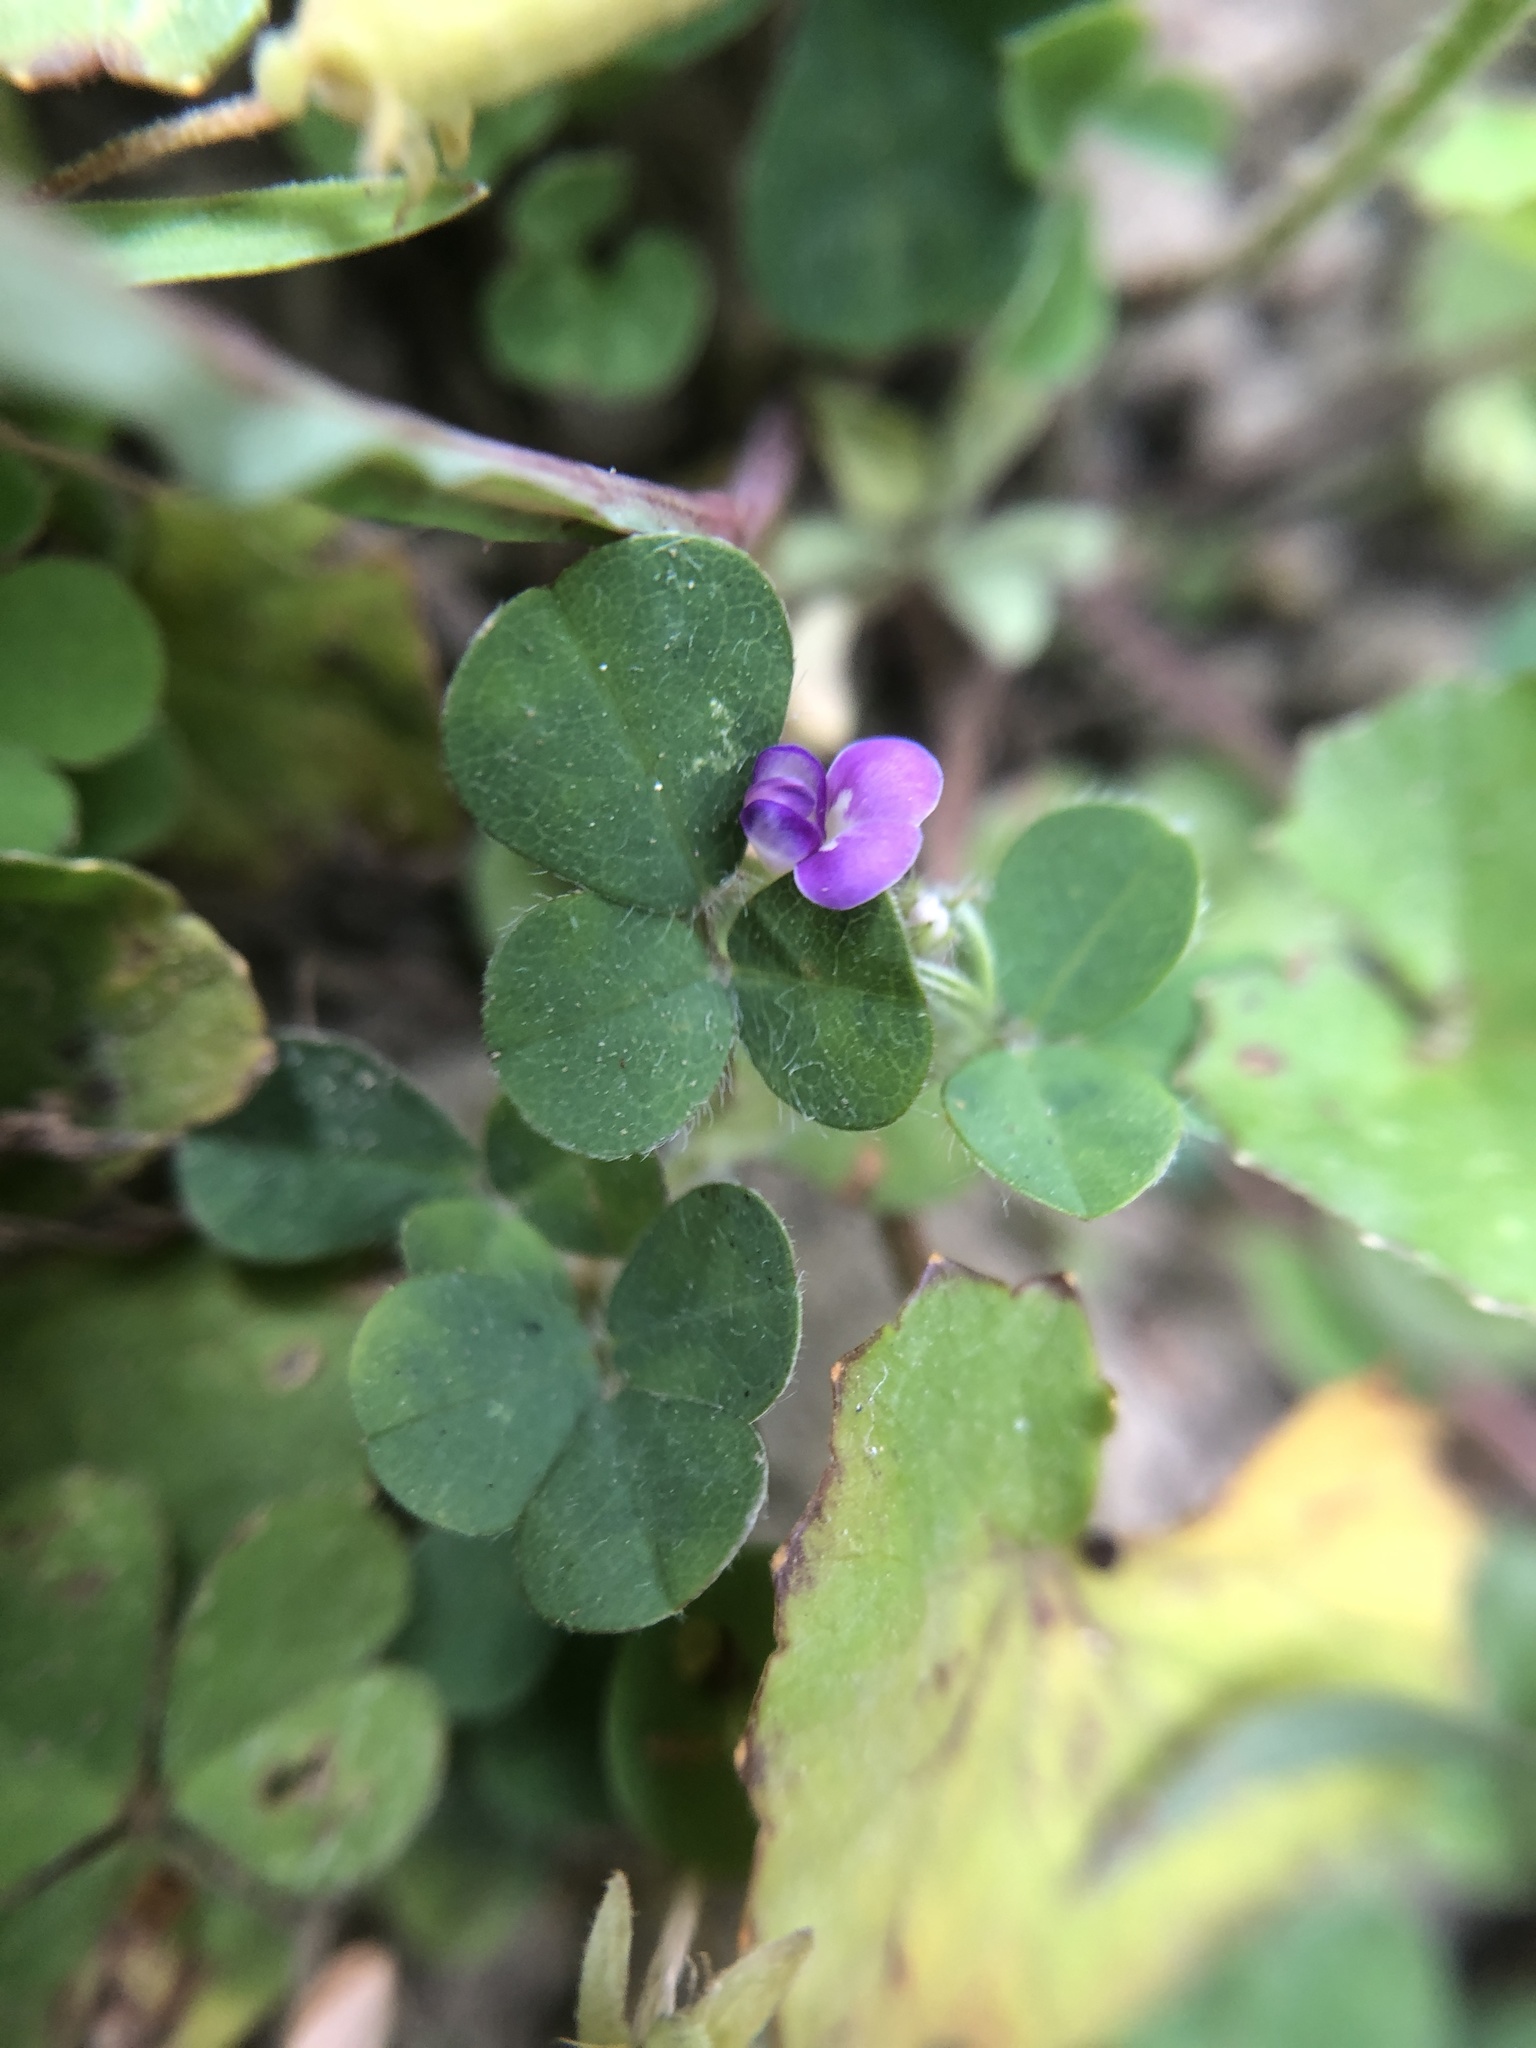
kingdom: Plantae
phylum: Tracheophyta
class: Magnoliopsida
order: Fabales
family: Fabaceae
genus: Grona
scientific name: Grona triflora
